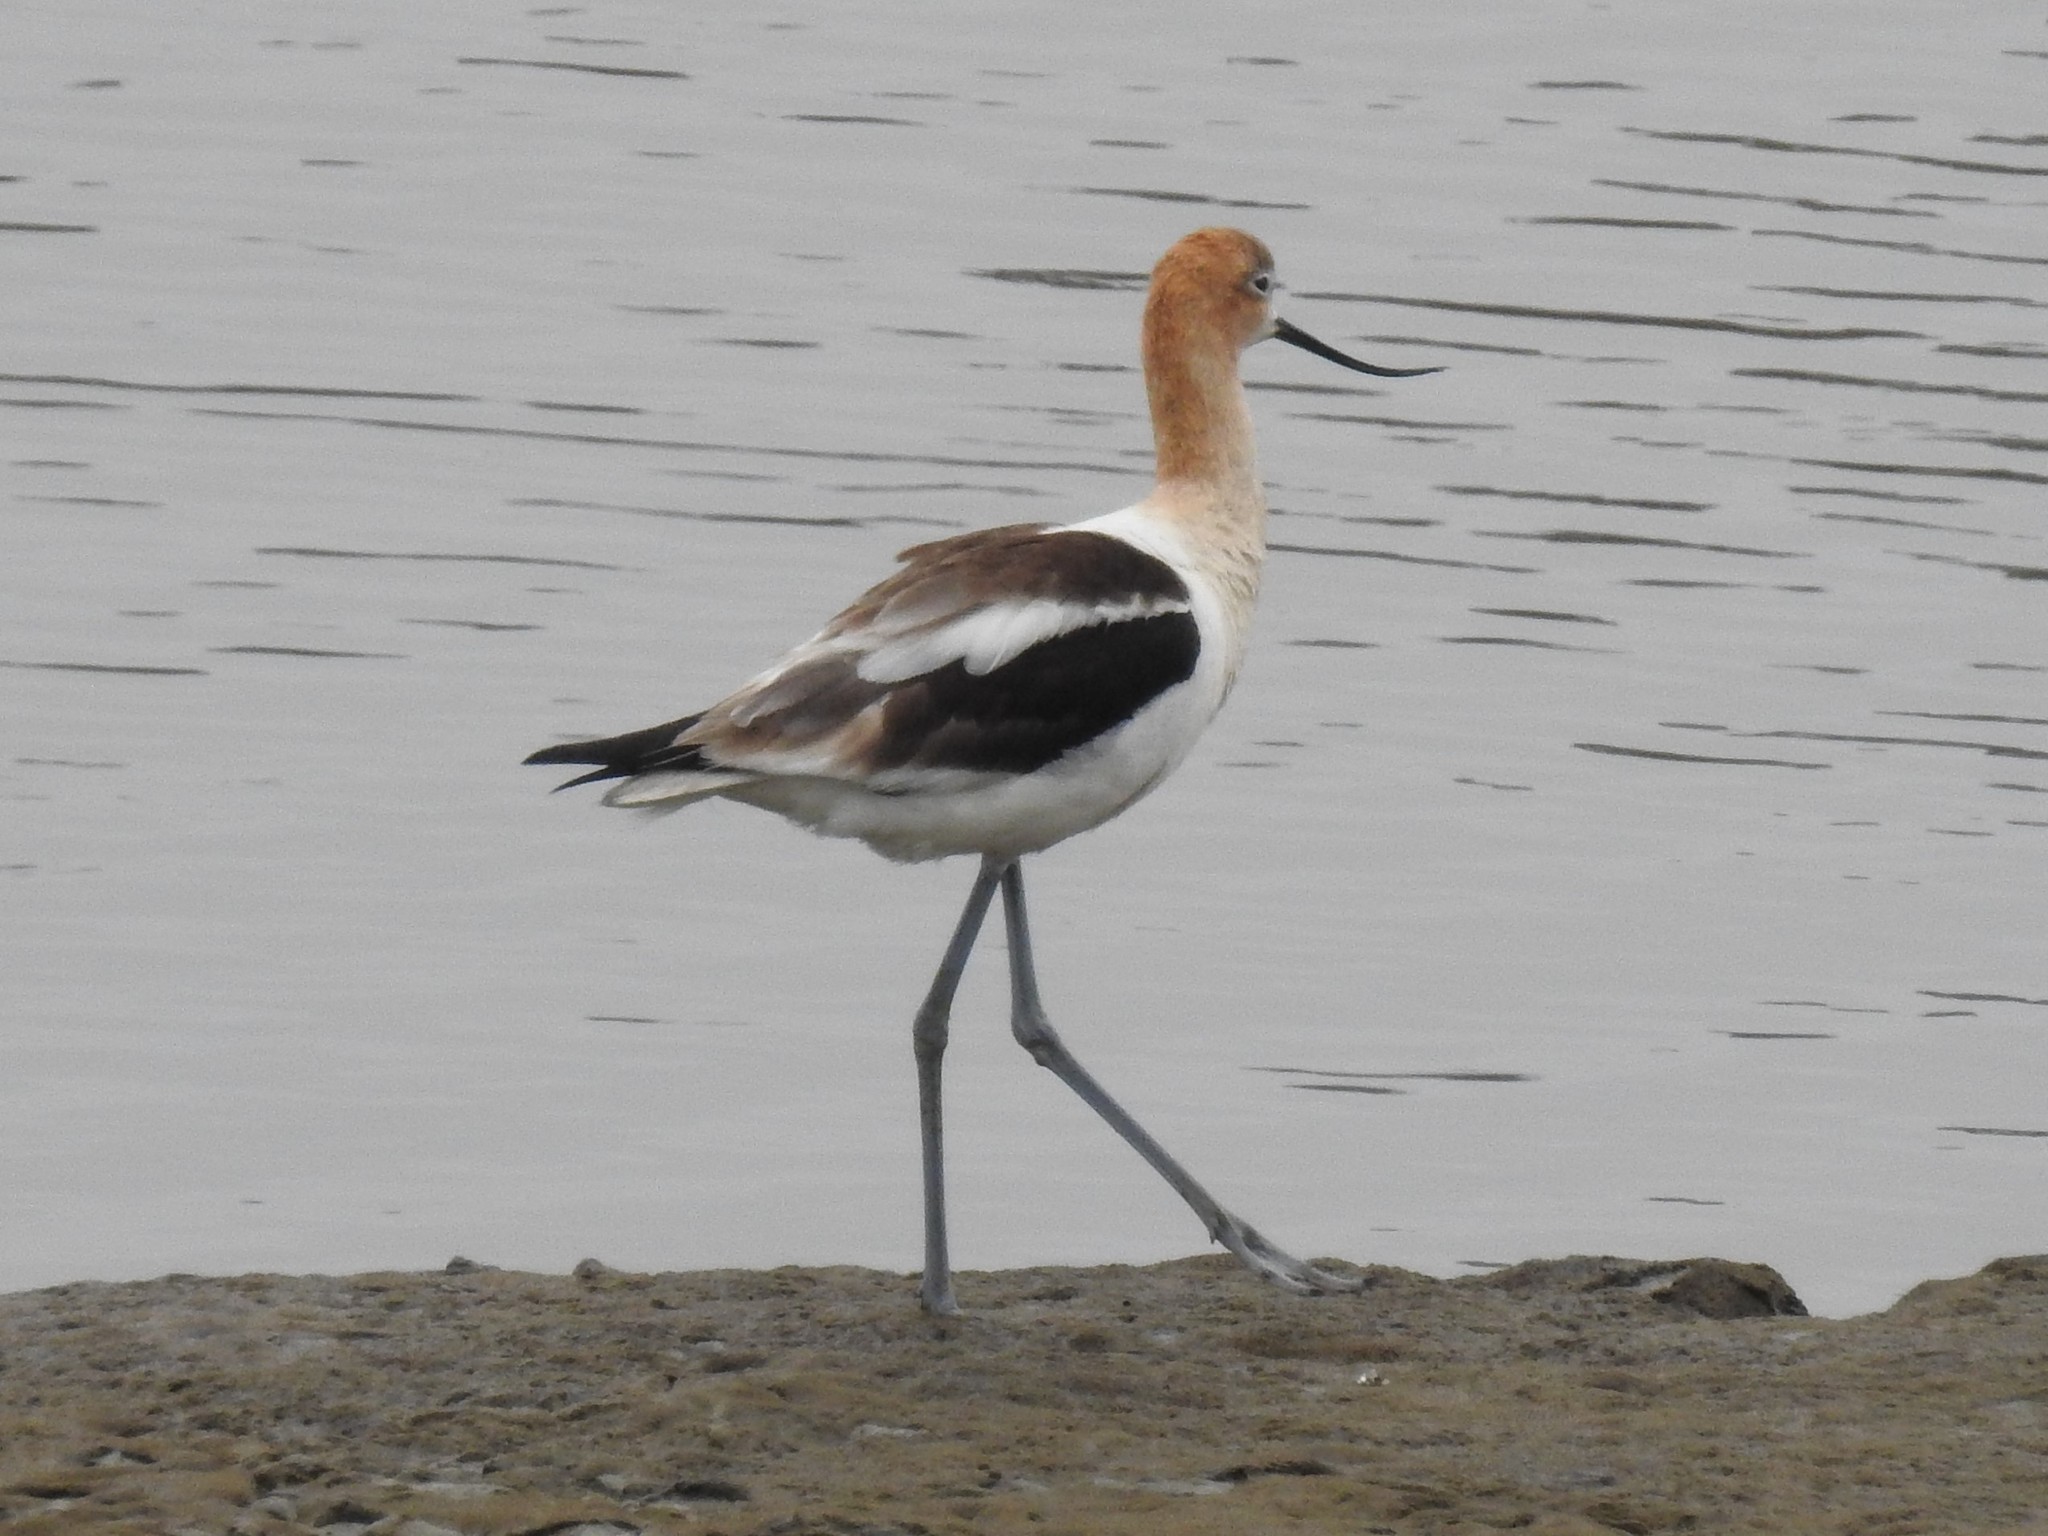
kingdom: Animalia
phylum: Chordata
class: Aves
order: Charadriiformes
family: Recurvirostridae
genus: Recurvirostra
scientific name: Recurvirostra americana
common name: American avocet
